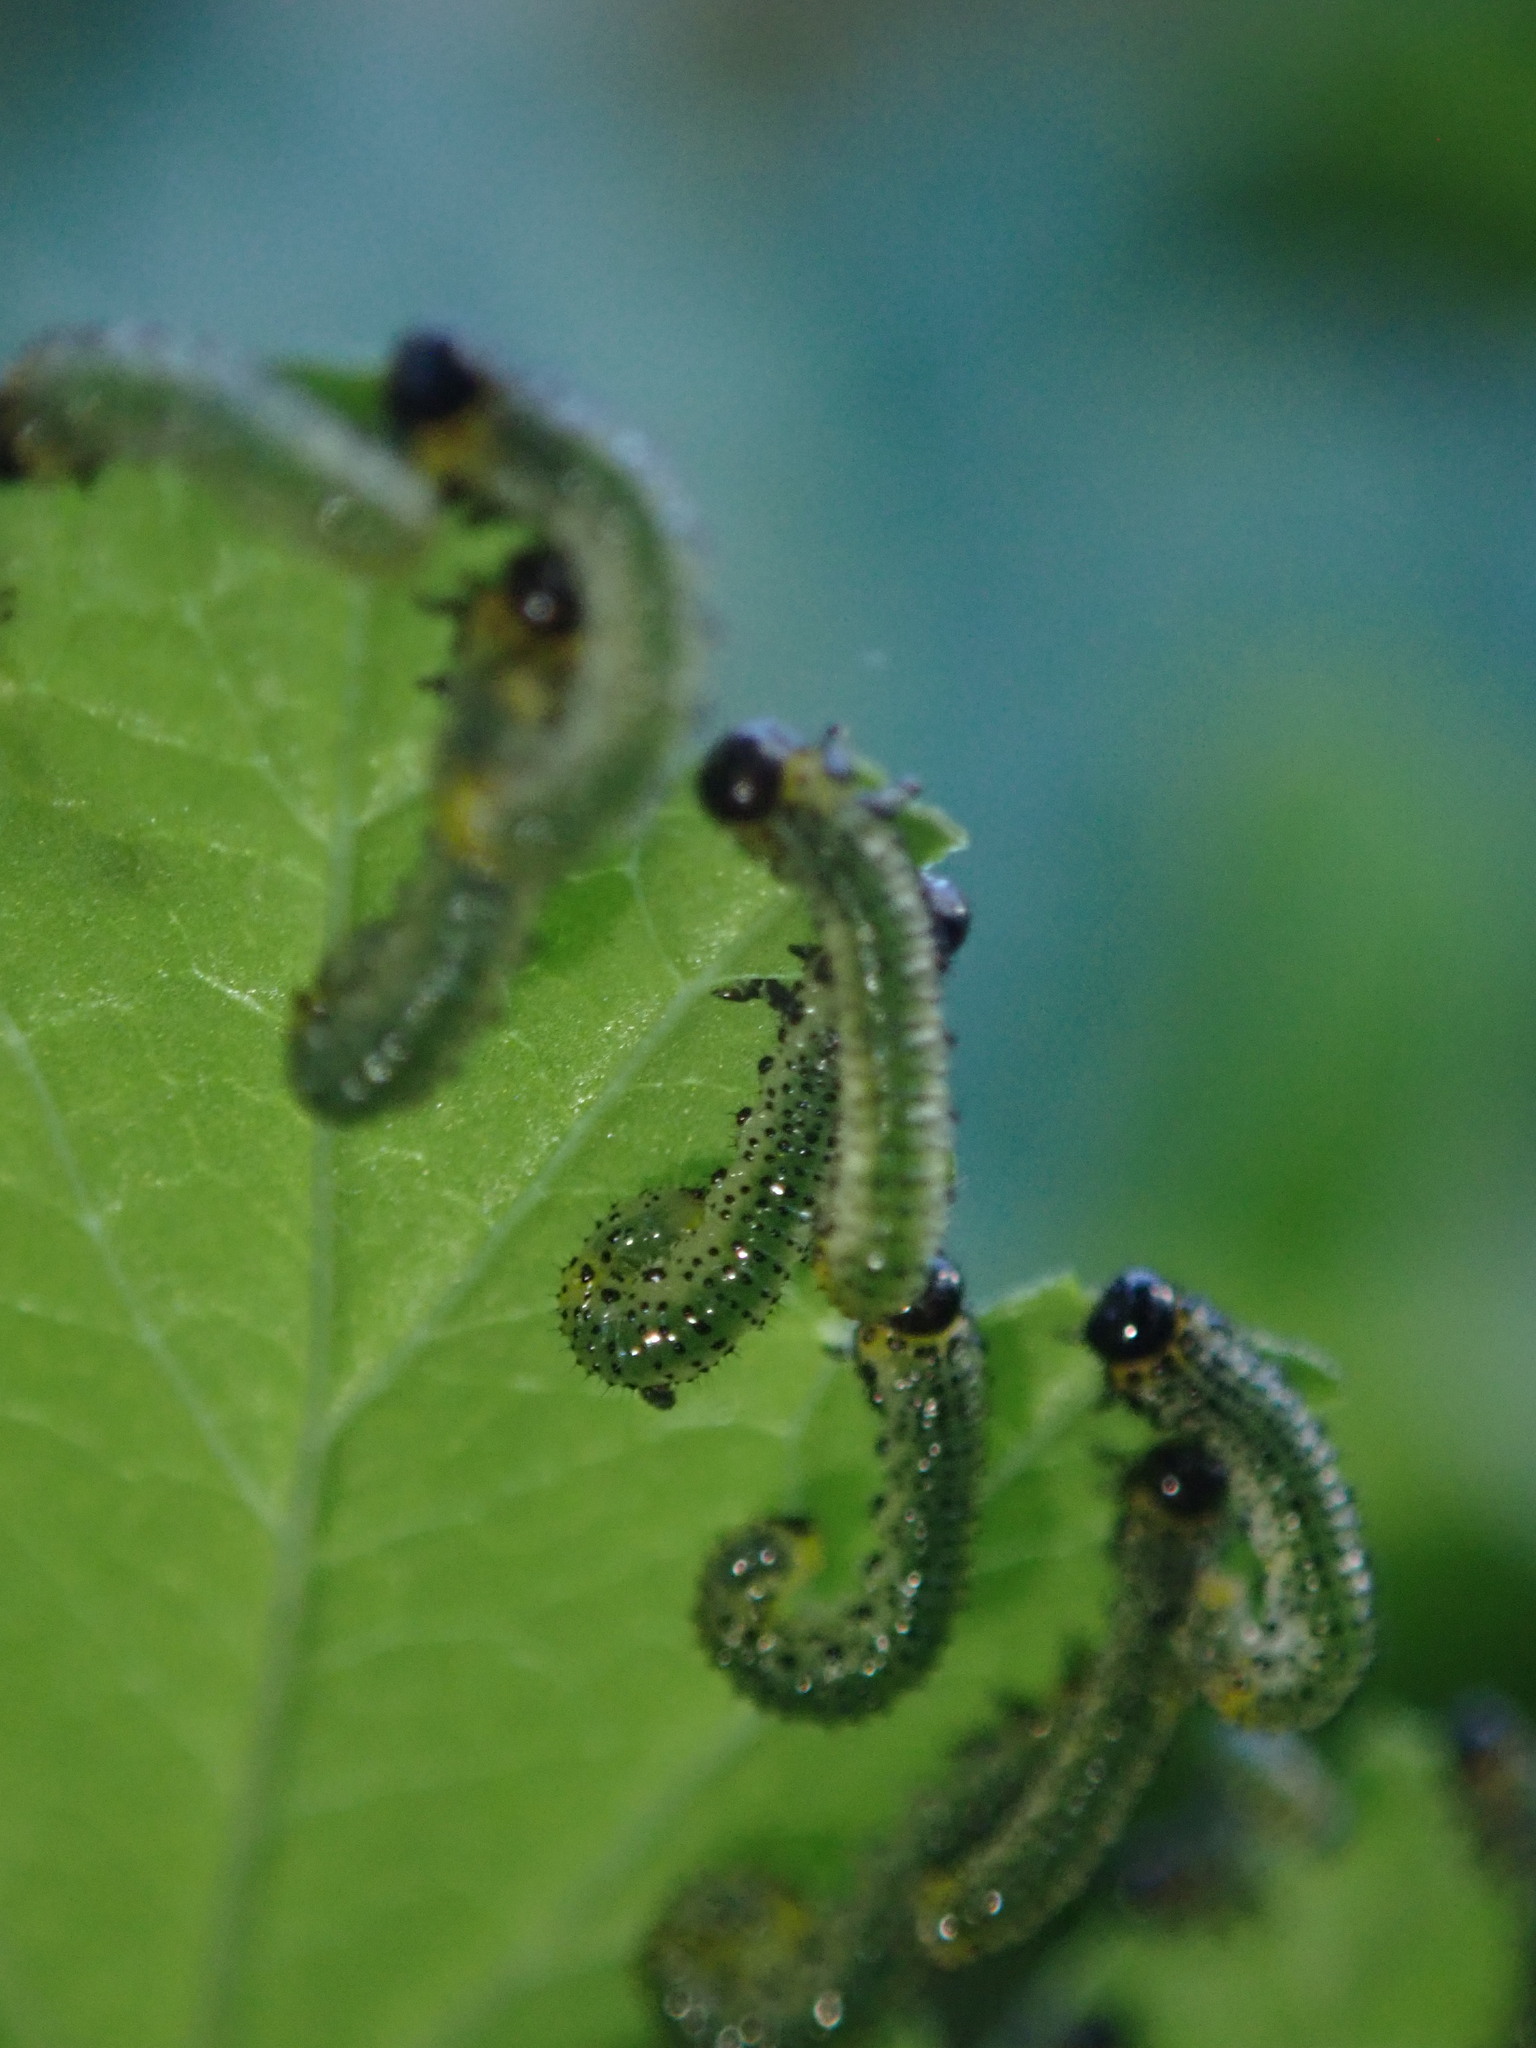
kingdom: Animalia
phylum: Arthropoda
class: Insecta
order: Hymenoptera
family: Tenthredinidae
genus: Nematus
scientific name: Nematus ribesii
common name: Imported currantworm
